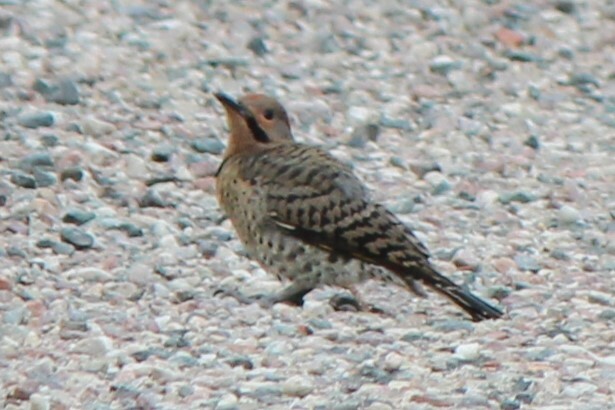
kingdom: Animalia
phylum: Chordata
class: Aves
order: Piciformes
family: Picidae
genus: Colaptes
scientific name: Colaptes auratus
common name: Northern flicker
